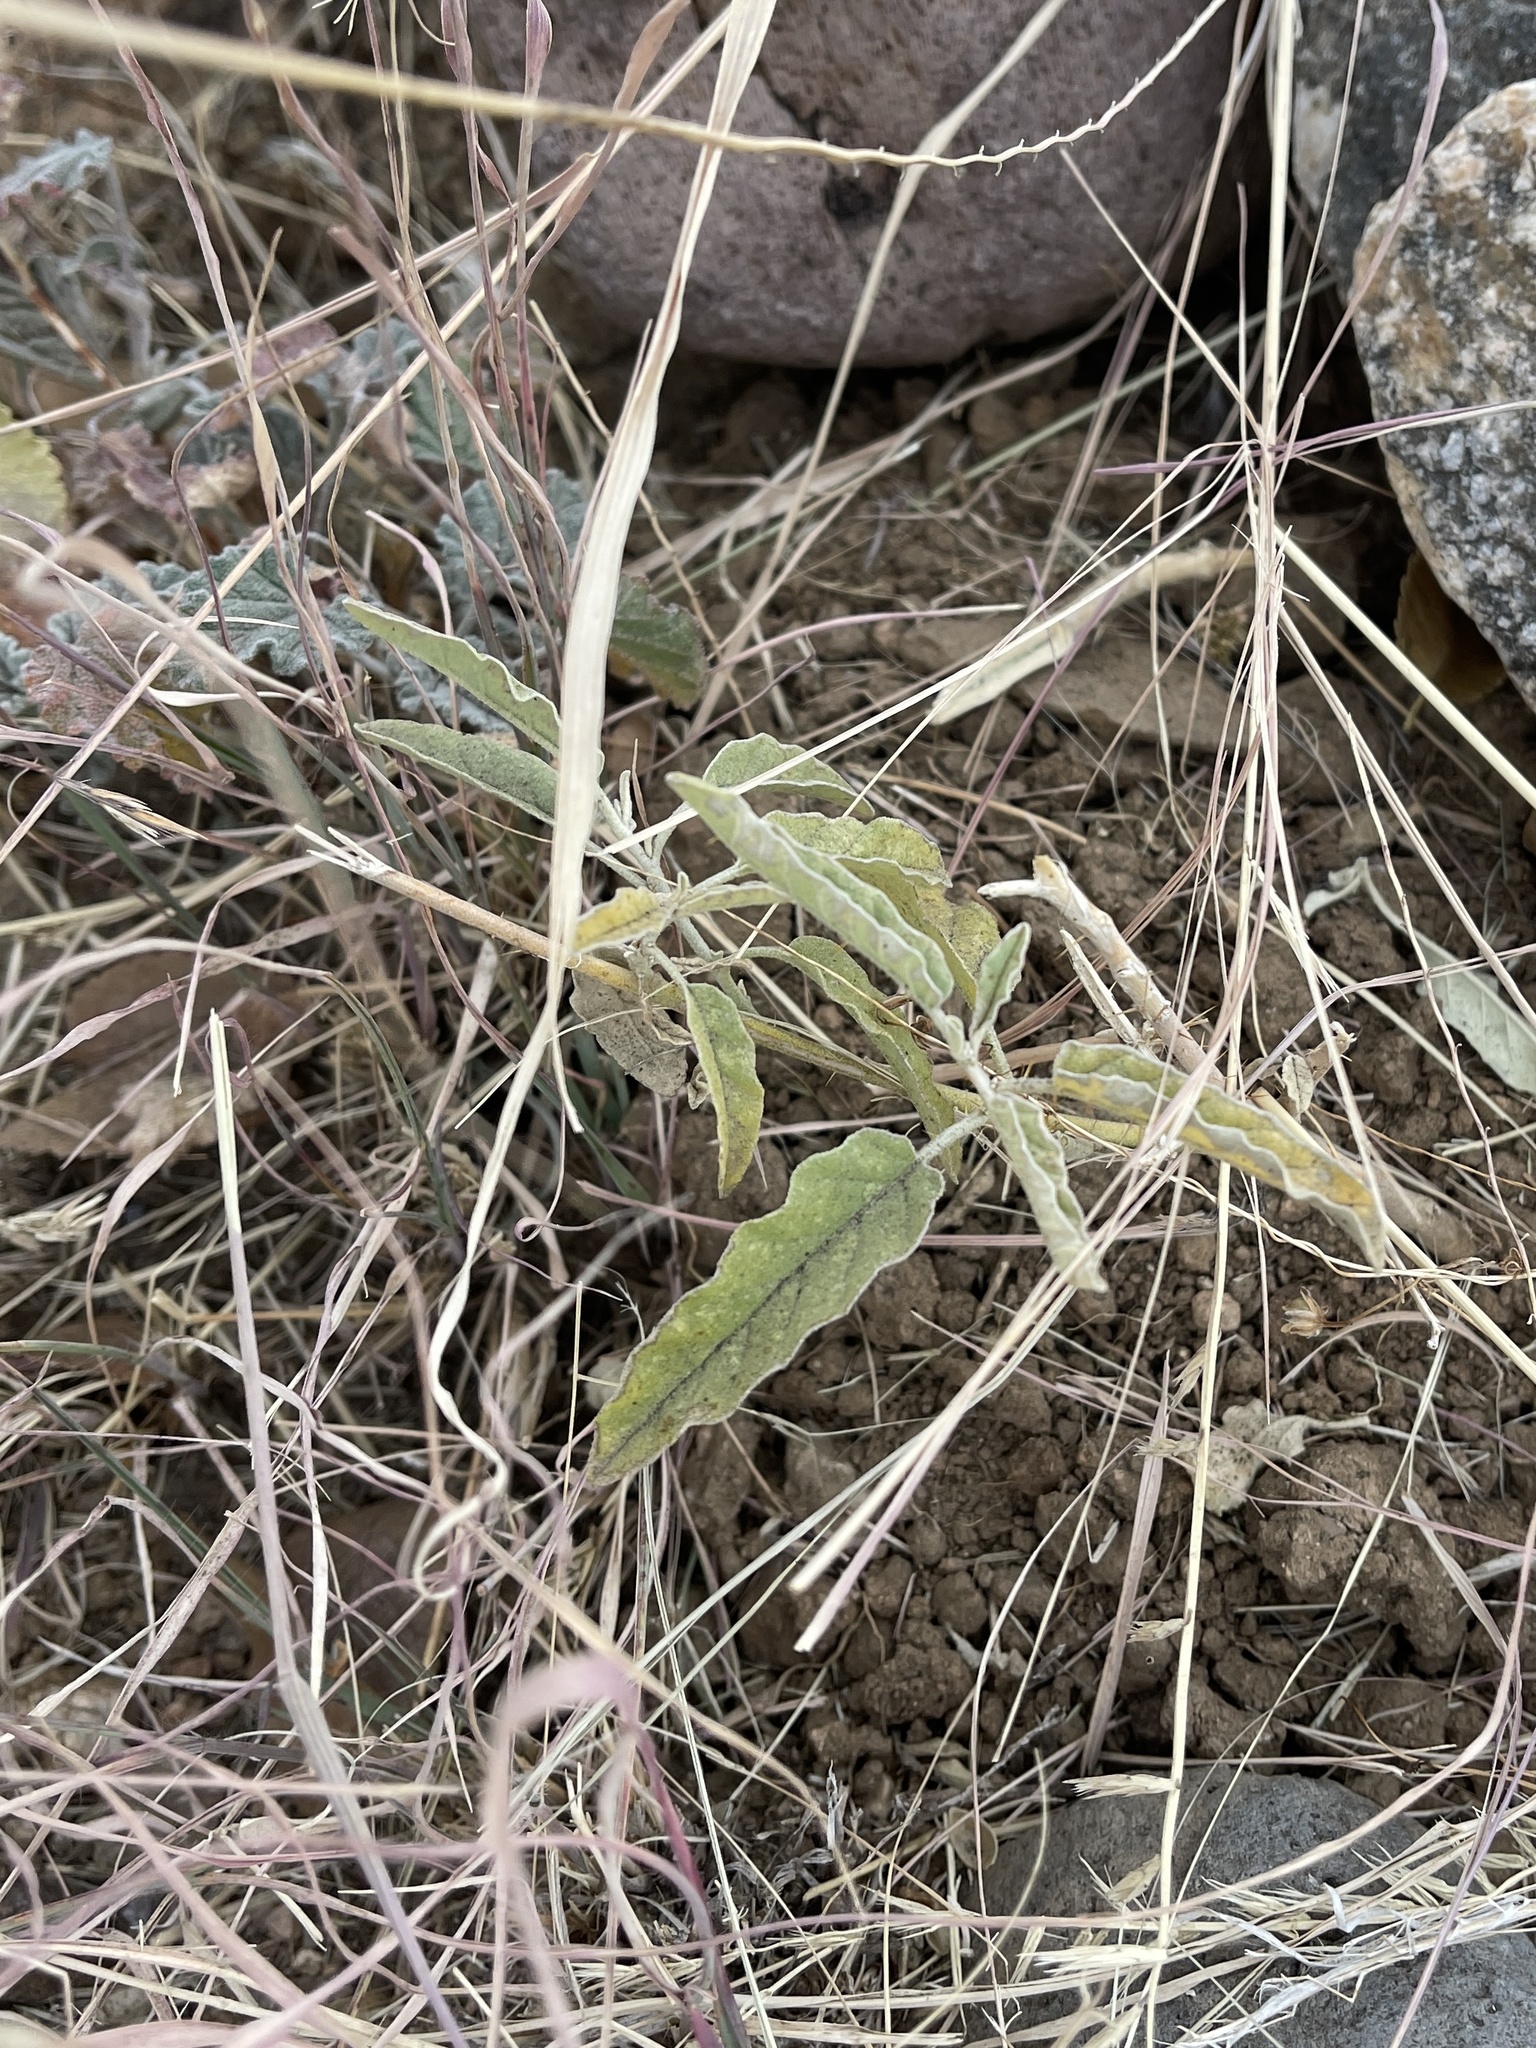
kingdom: Plantae
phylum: Tracheophyta
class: Magnoliopsida
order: Solanales
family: Solanaceae
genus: Solanum
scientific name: Solanum elaeagnifolium
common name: Silverleaf nightshade
